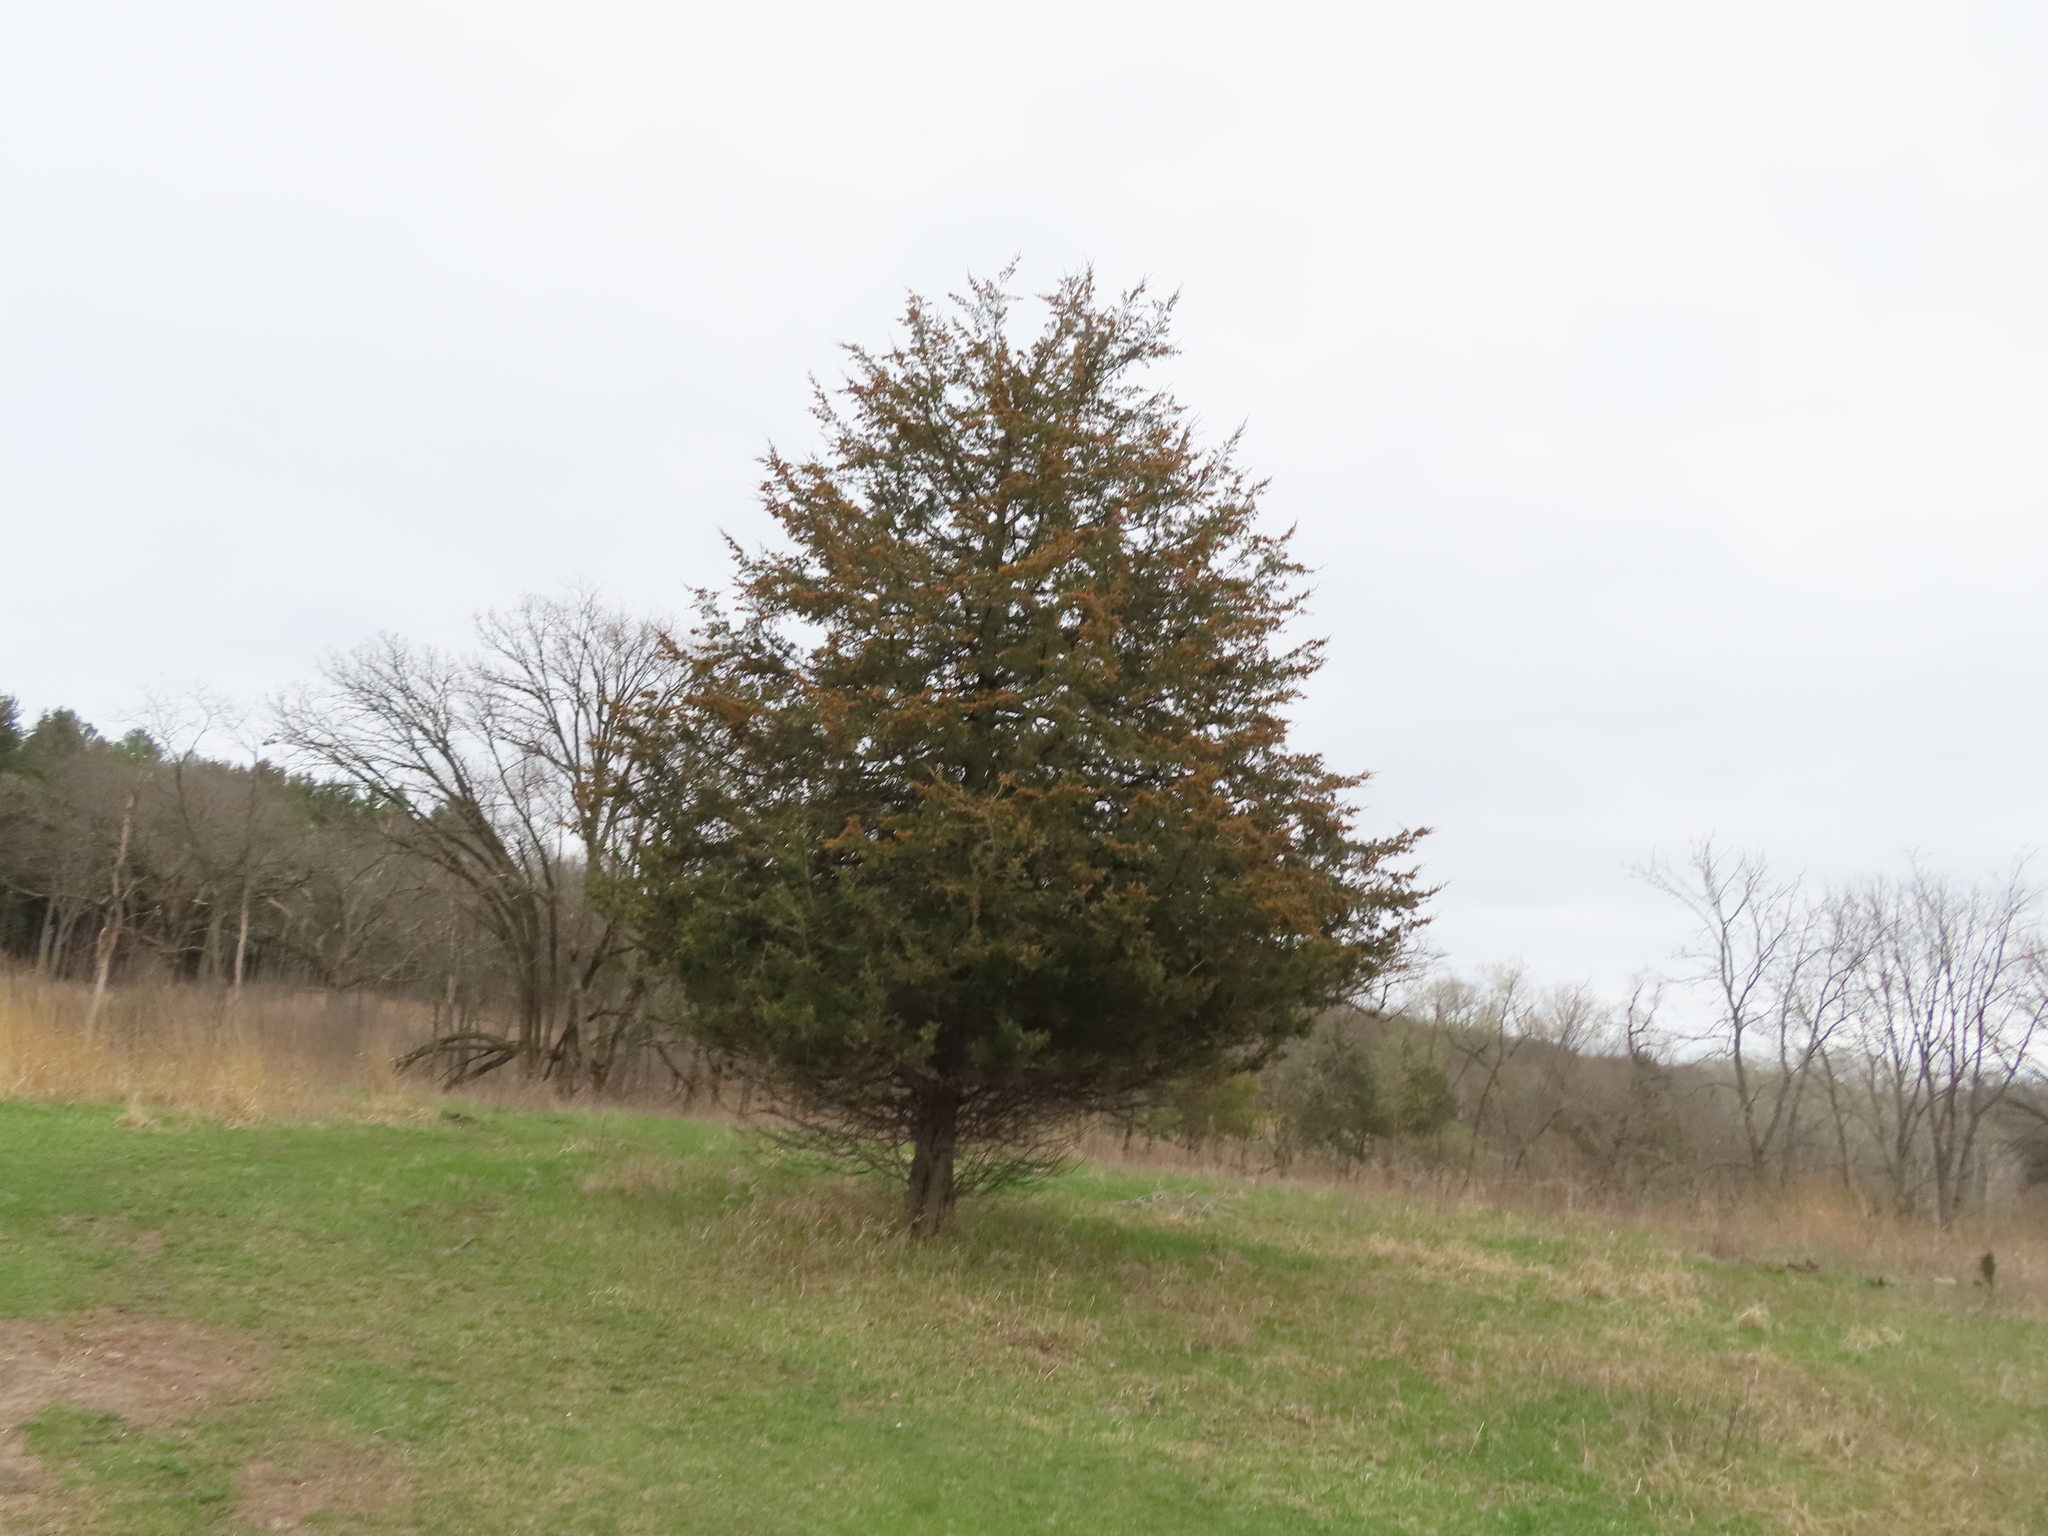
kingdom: Plantae
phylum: Tracheophyta
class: Pinopsida
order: Pinales
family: Cupressaceae
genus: Juniperus
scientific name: Juniperus virginiana
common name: Red juniper
